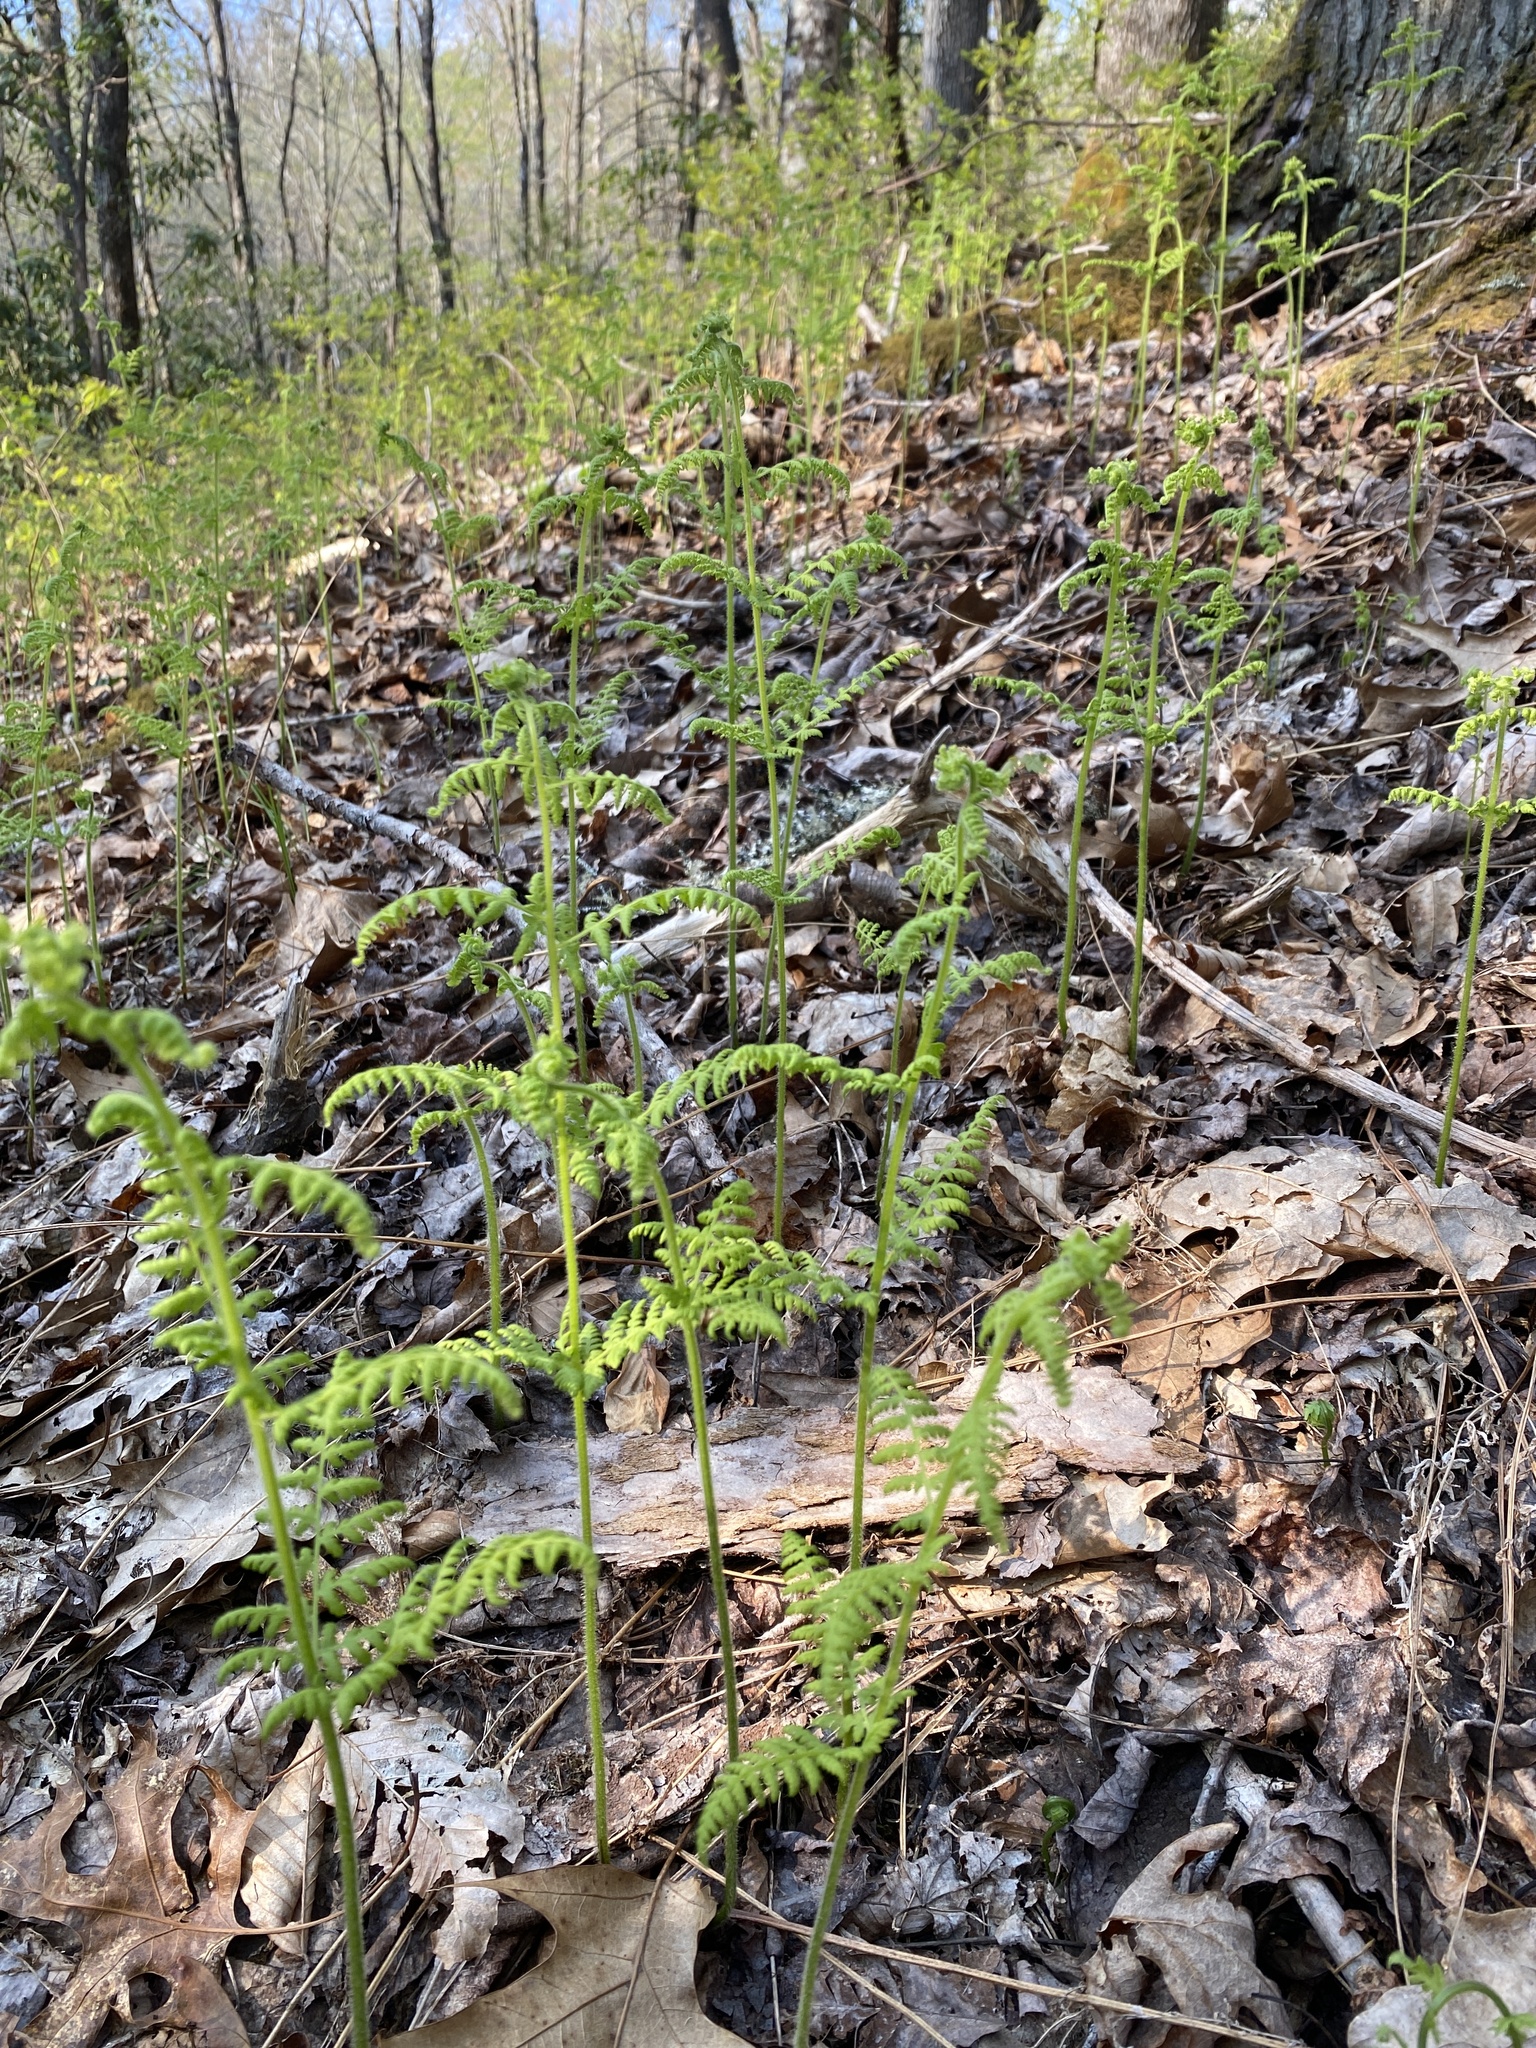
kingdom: Plantae
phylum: Tracheophyta
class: Polypodiopsida
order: Polypodiales
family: Dennstaedtiaceae
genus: Sitobolium
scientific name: Sitobolium punctilobum
